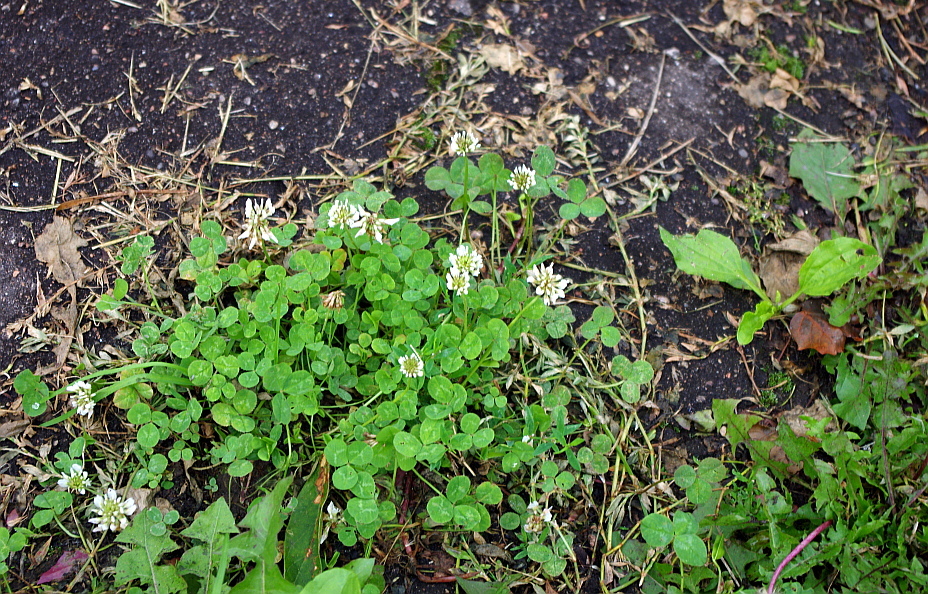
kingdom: Plantae
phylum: Tracheophyta
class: Magnoliopsida
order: Fabales
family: Fabaceae
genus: Trifolium
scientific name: Trifolium repens
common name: White clover
